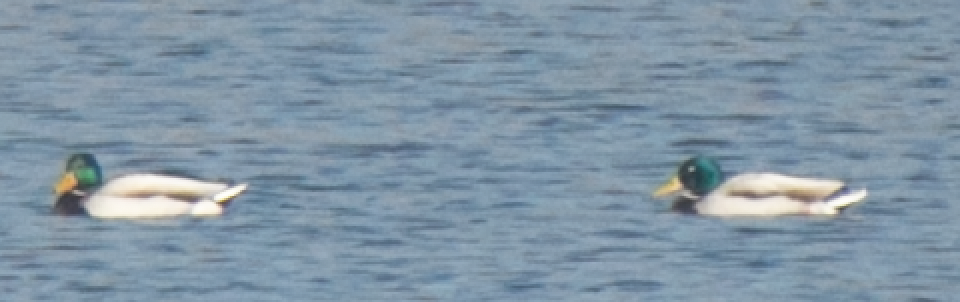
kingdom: Animalia
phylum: Chordata
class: Aves
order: Anseriformes
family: Anatidae
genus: Anas
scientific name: Anas platyrhynchos
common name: Mallard
